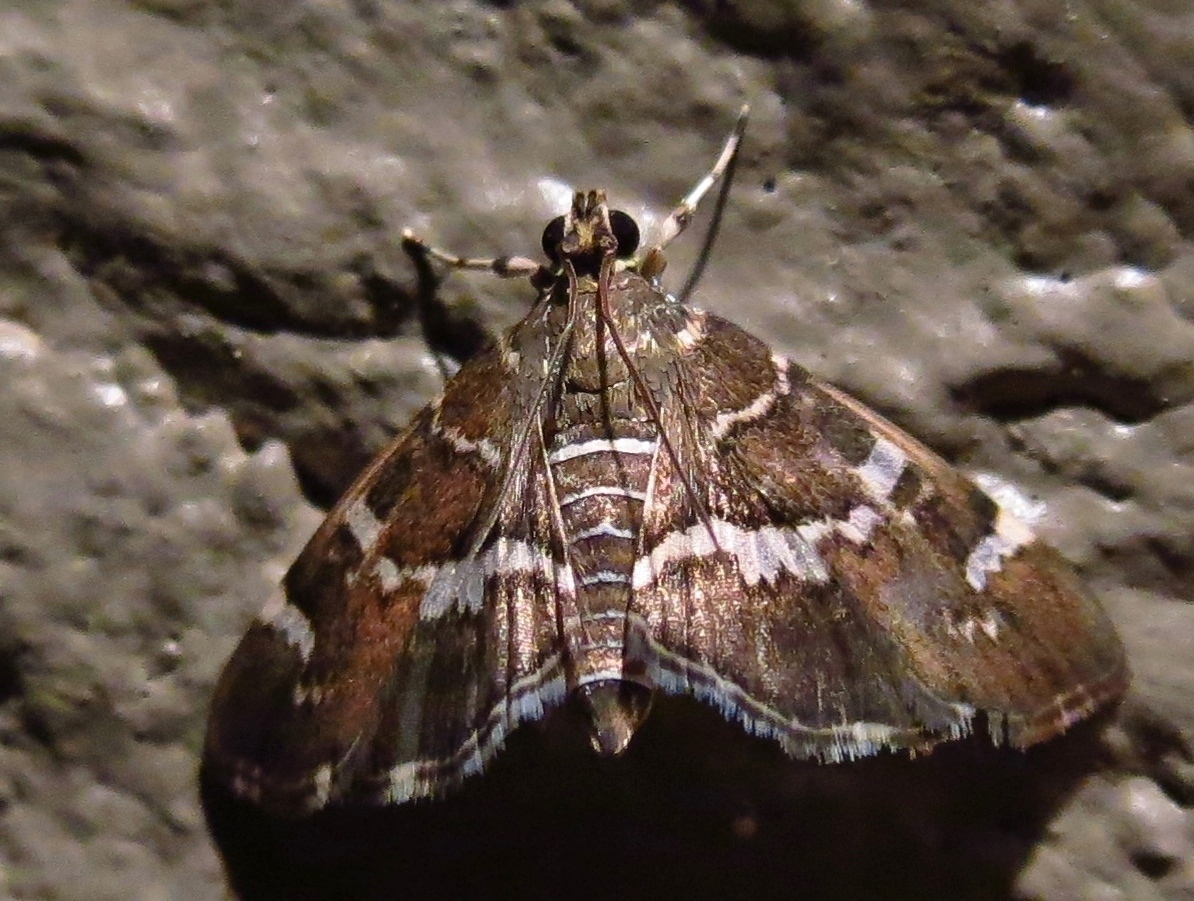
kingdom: Animalia
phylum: Arthropoda
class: Insecta
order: Lepidoptera
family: Crambidae
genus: Hymenia
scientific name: Hymenia perspectalis
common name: Spotted beet webworm
